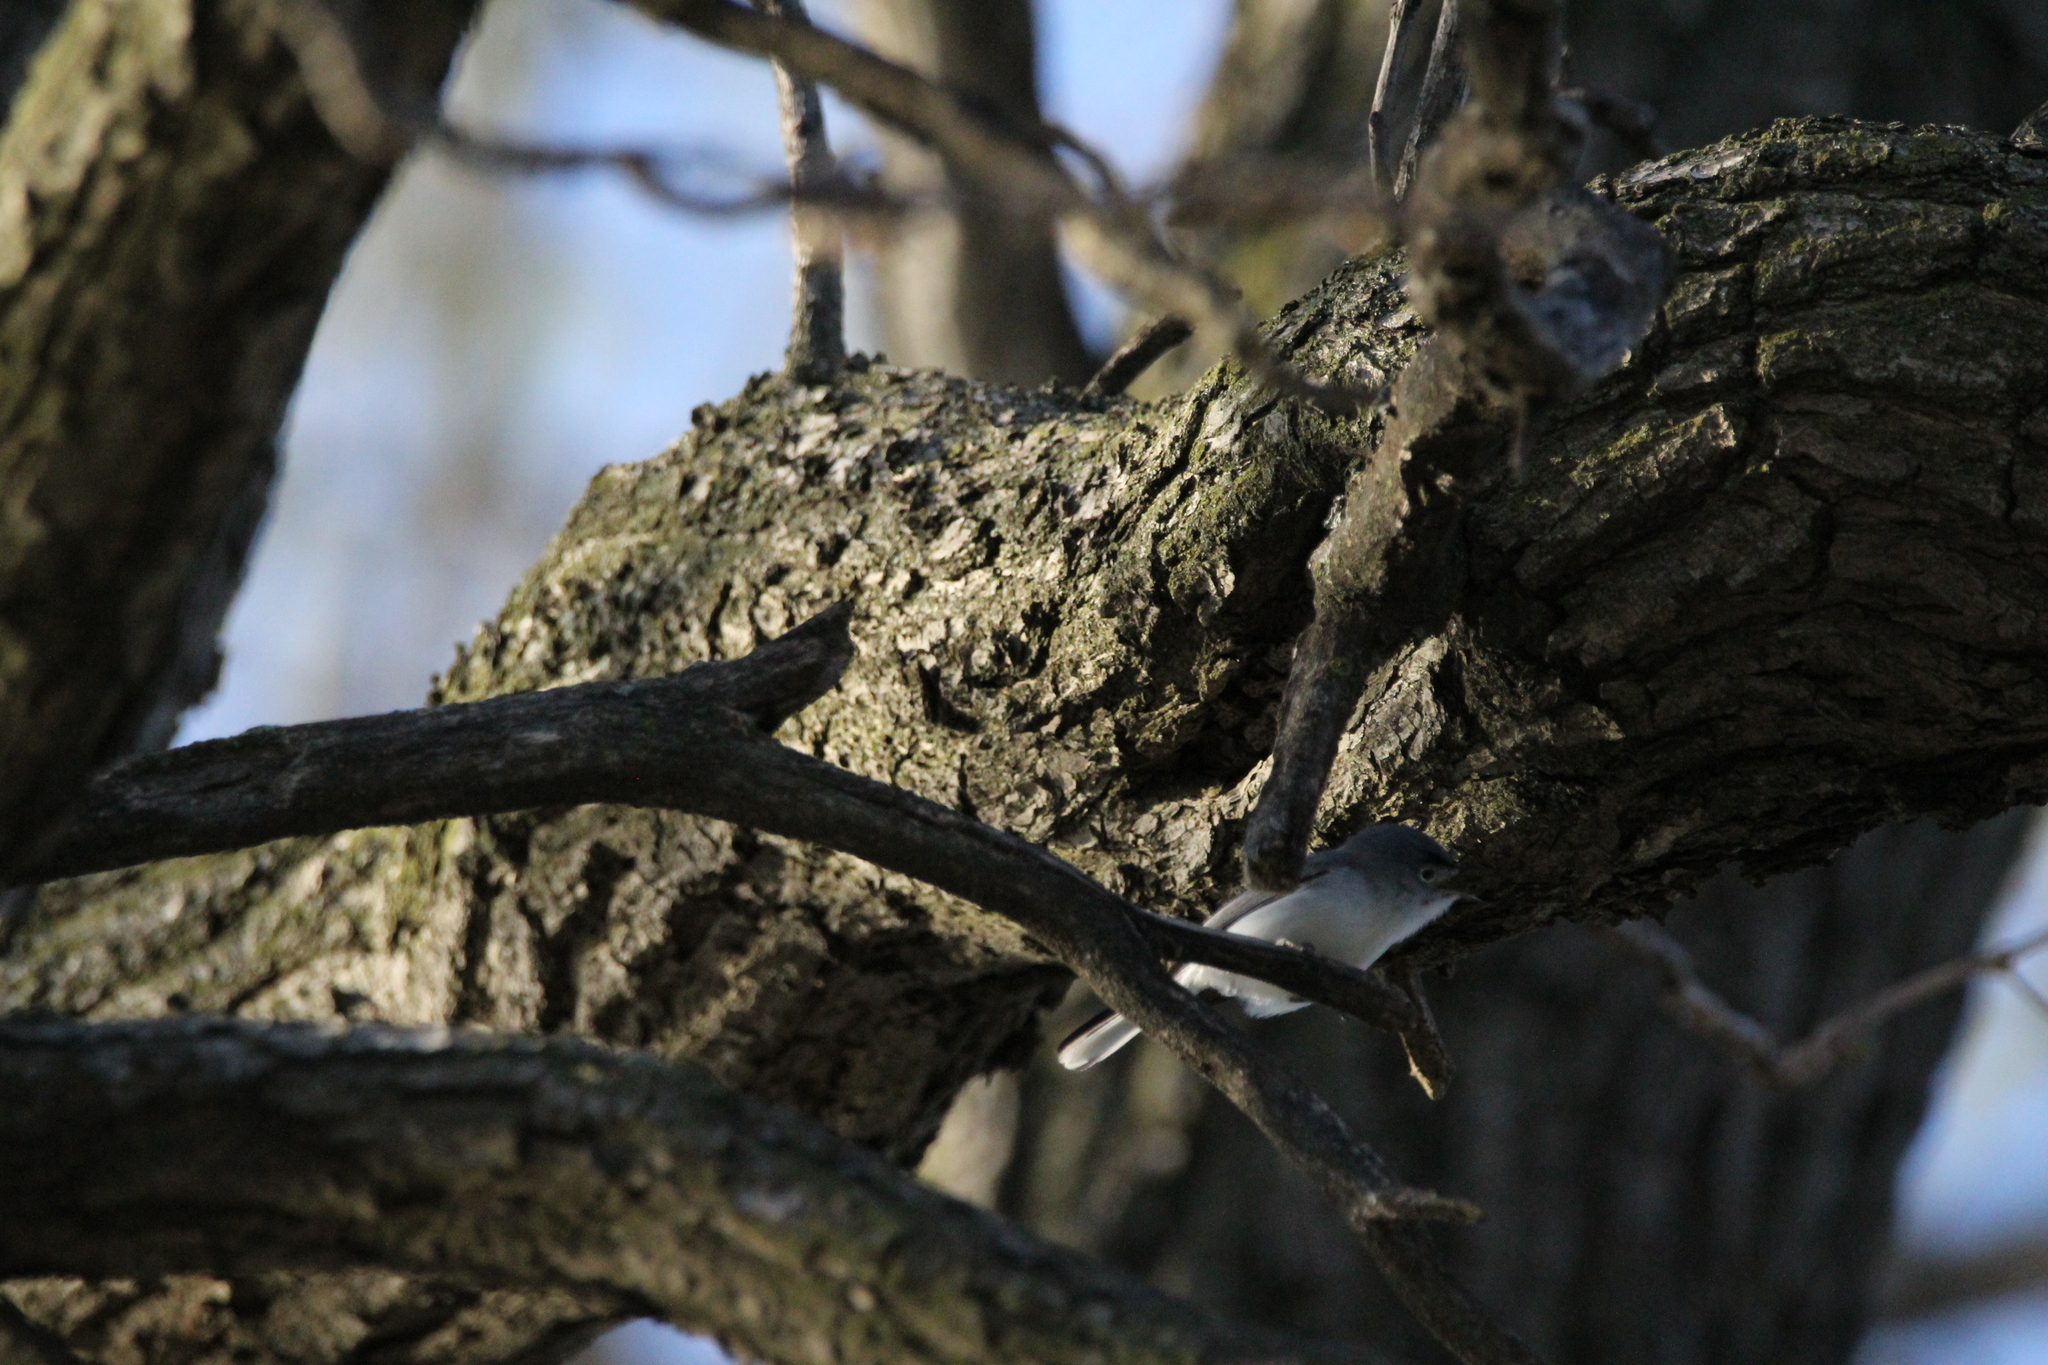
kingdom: Animalia
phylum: Chordata
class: Aves
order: Passeriformes
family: Polioptilidae
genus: Polioptila
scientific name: Polioptila caerulea
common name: Blue-gray gnatcatcher
